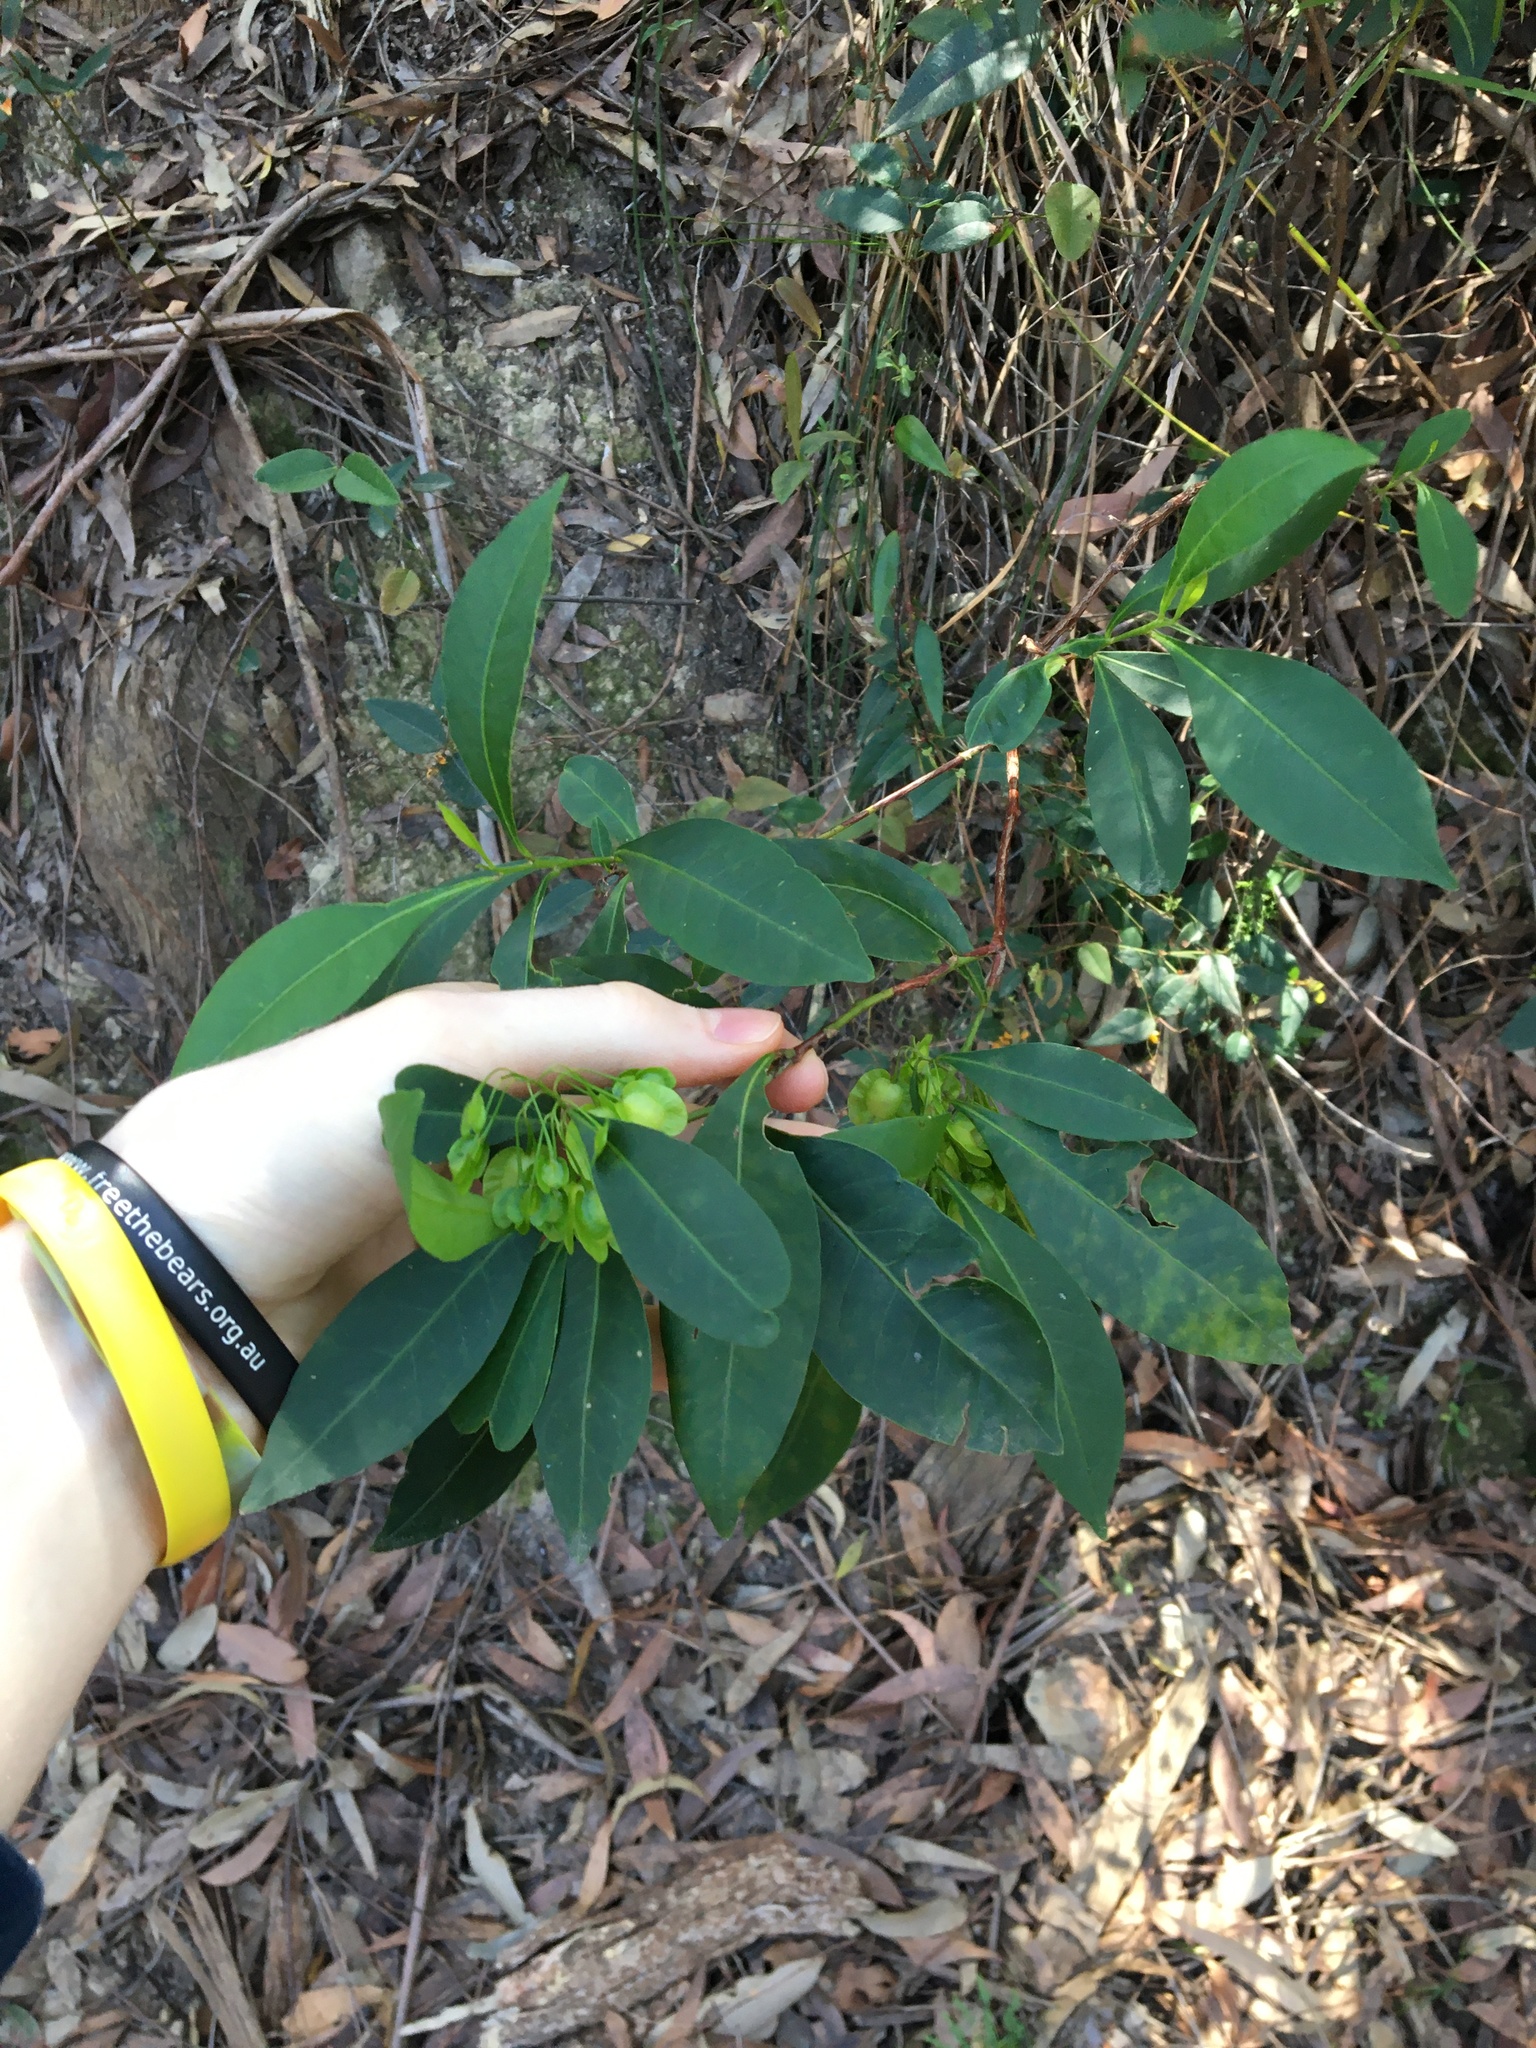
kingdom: Plantae
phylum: Tracheophyta
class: Magnoliopsida
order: Sapindales
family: Sapindaceae
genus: Dodonaea
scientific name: Dodonaea triquetra
